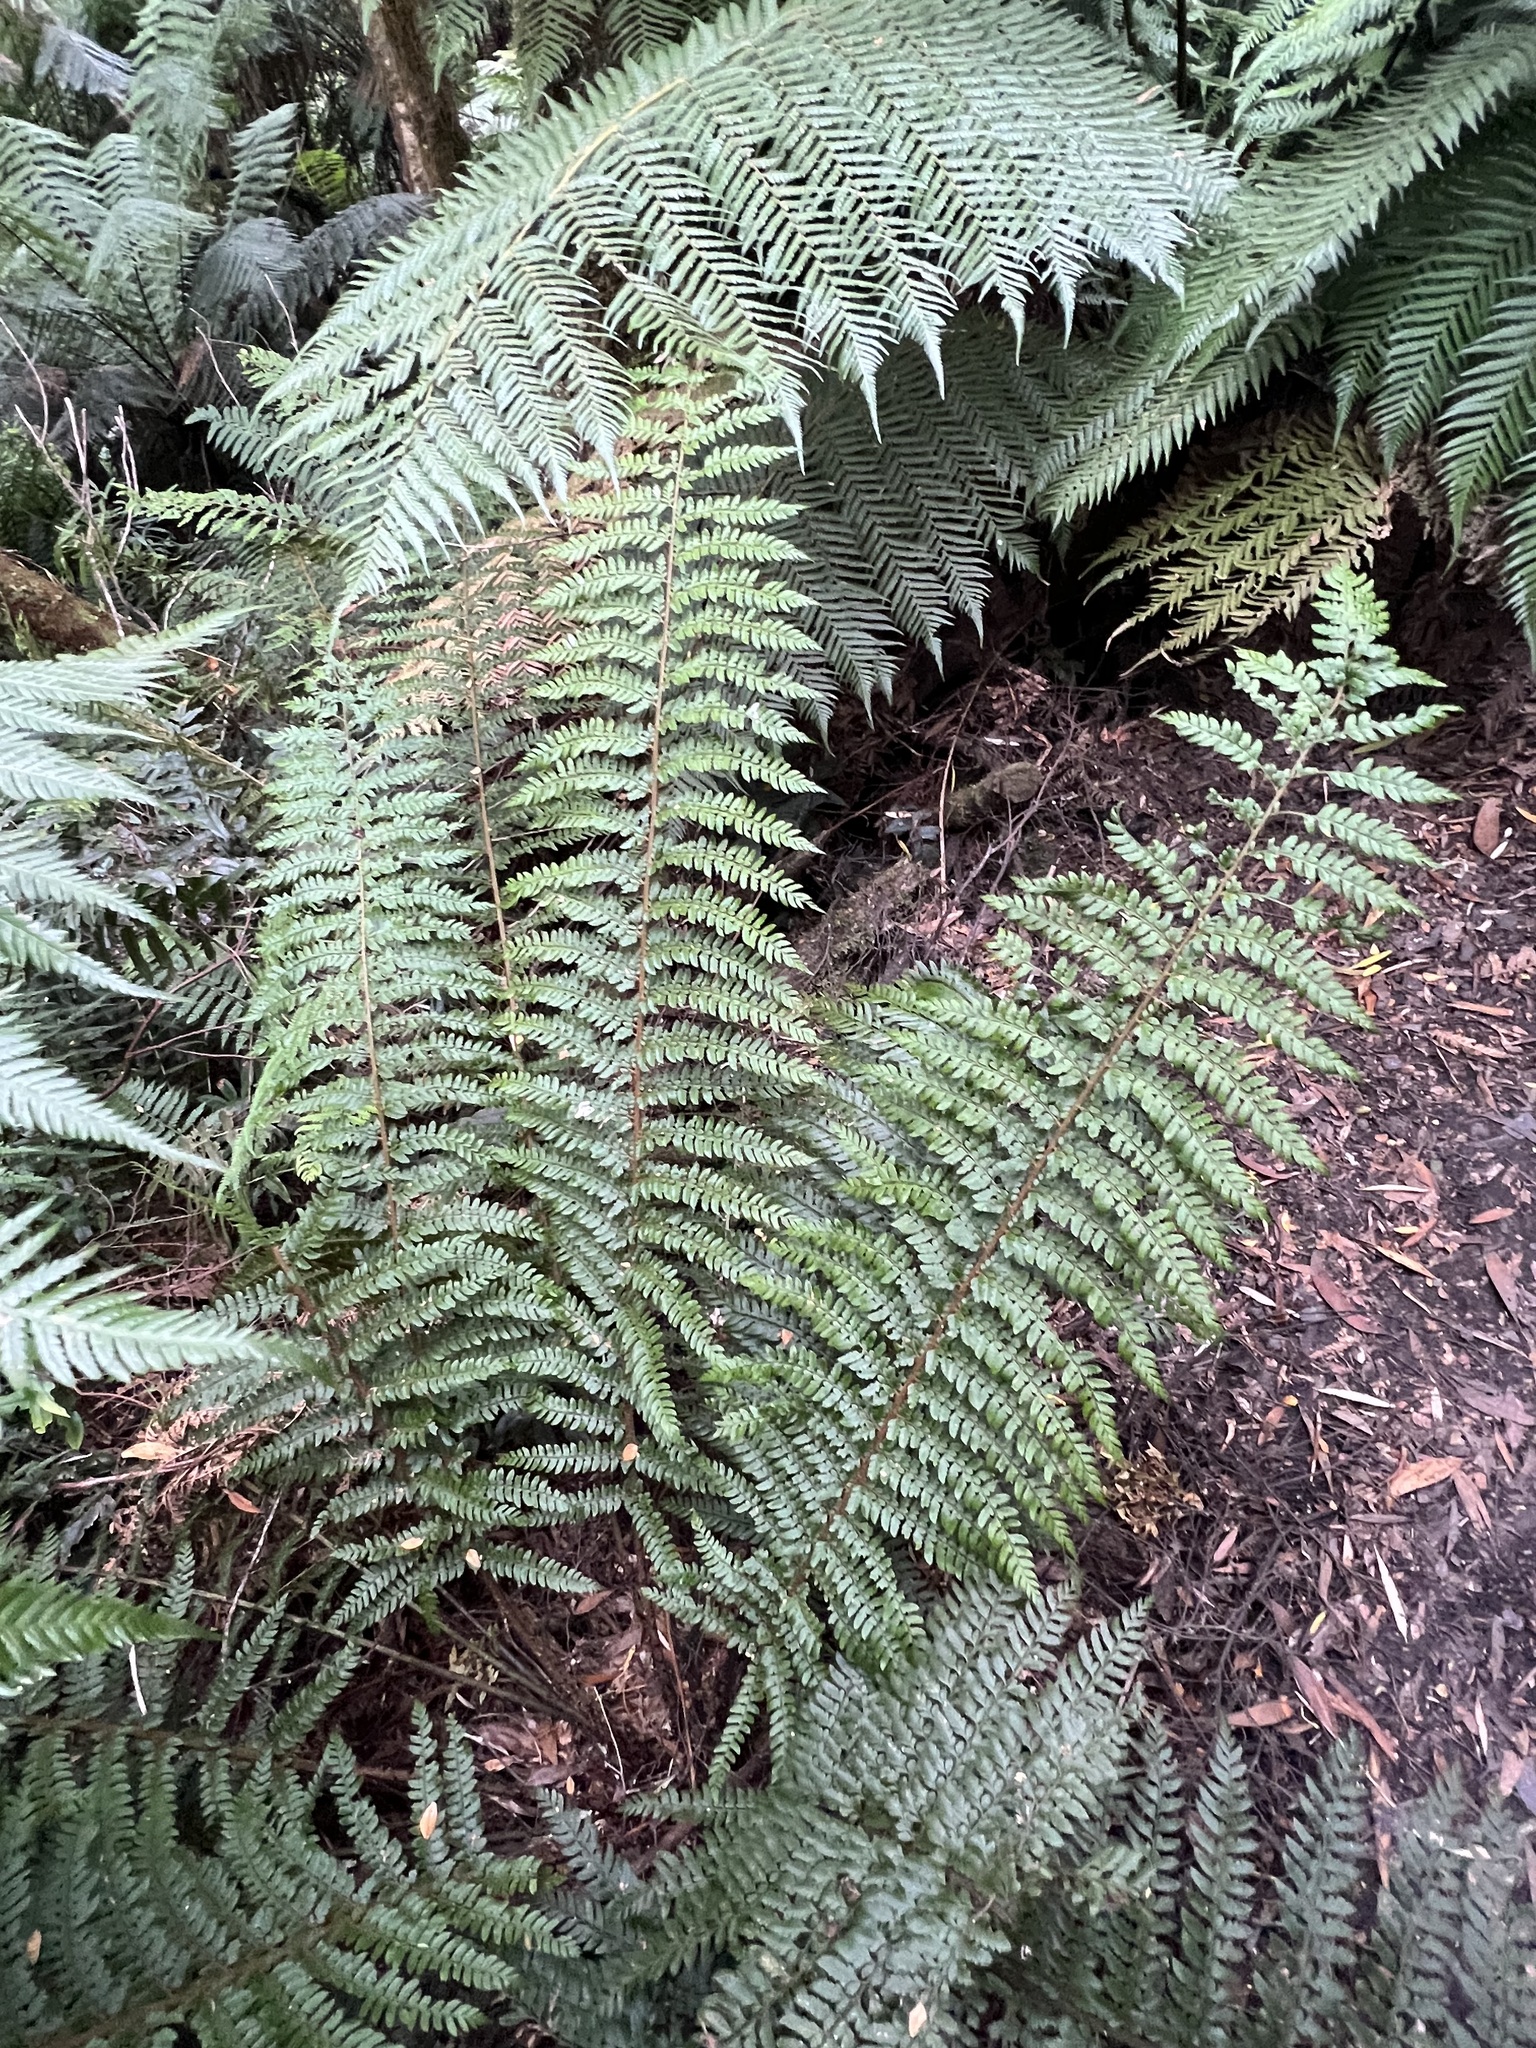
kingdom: Plantae
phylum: Tracheophyta
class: Polypodiopsida
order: Polypodiales
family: Dryopteridaceae
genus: Polystichum
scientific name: Polystichum proliferum
